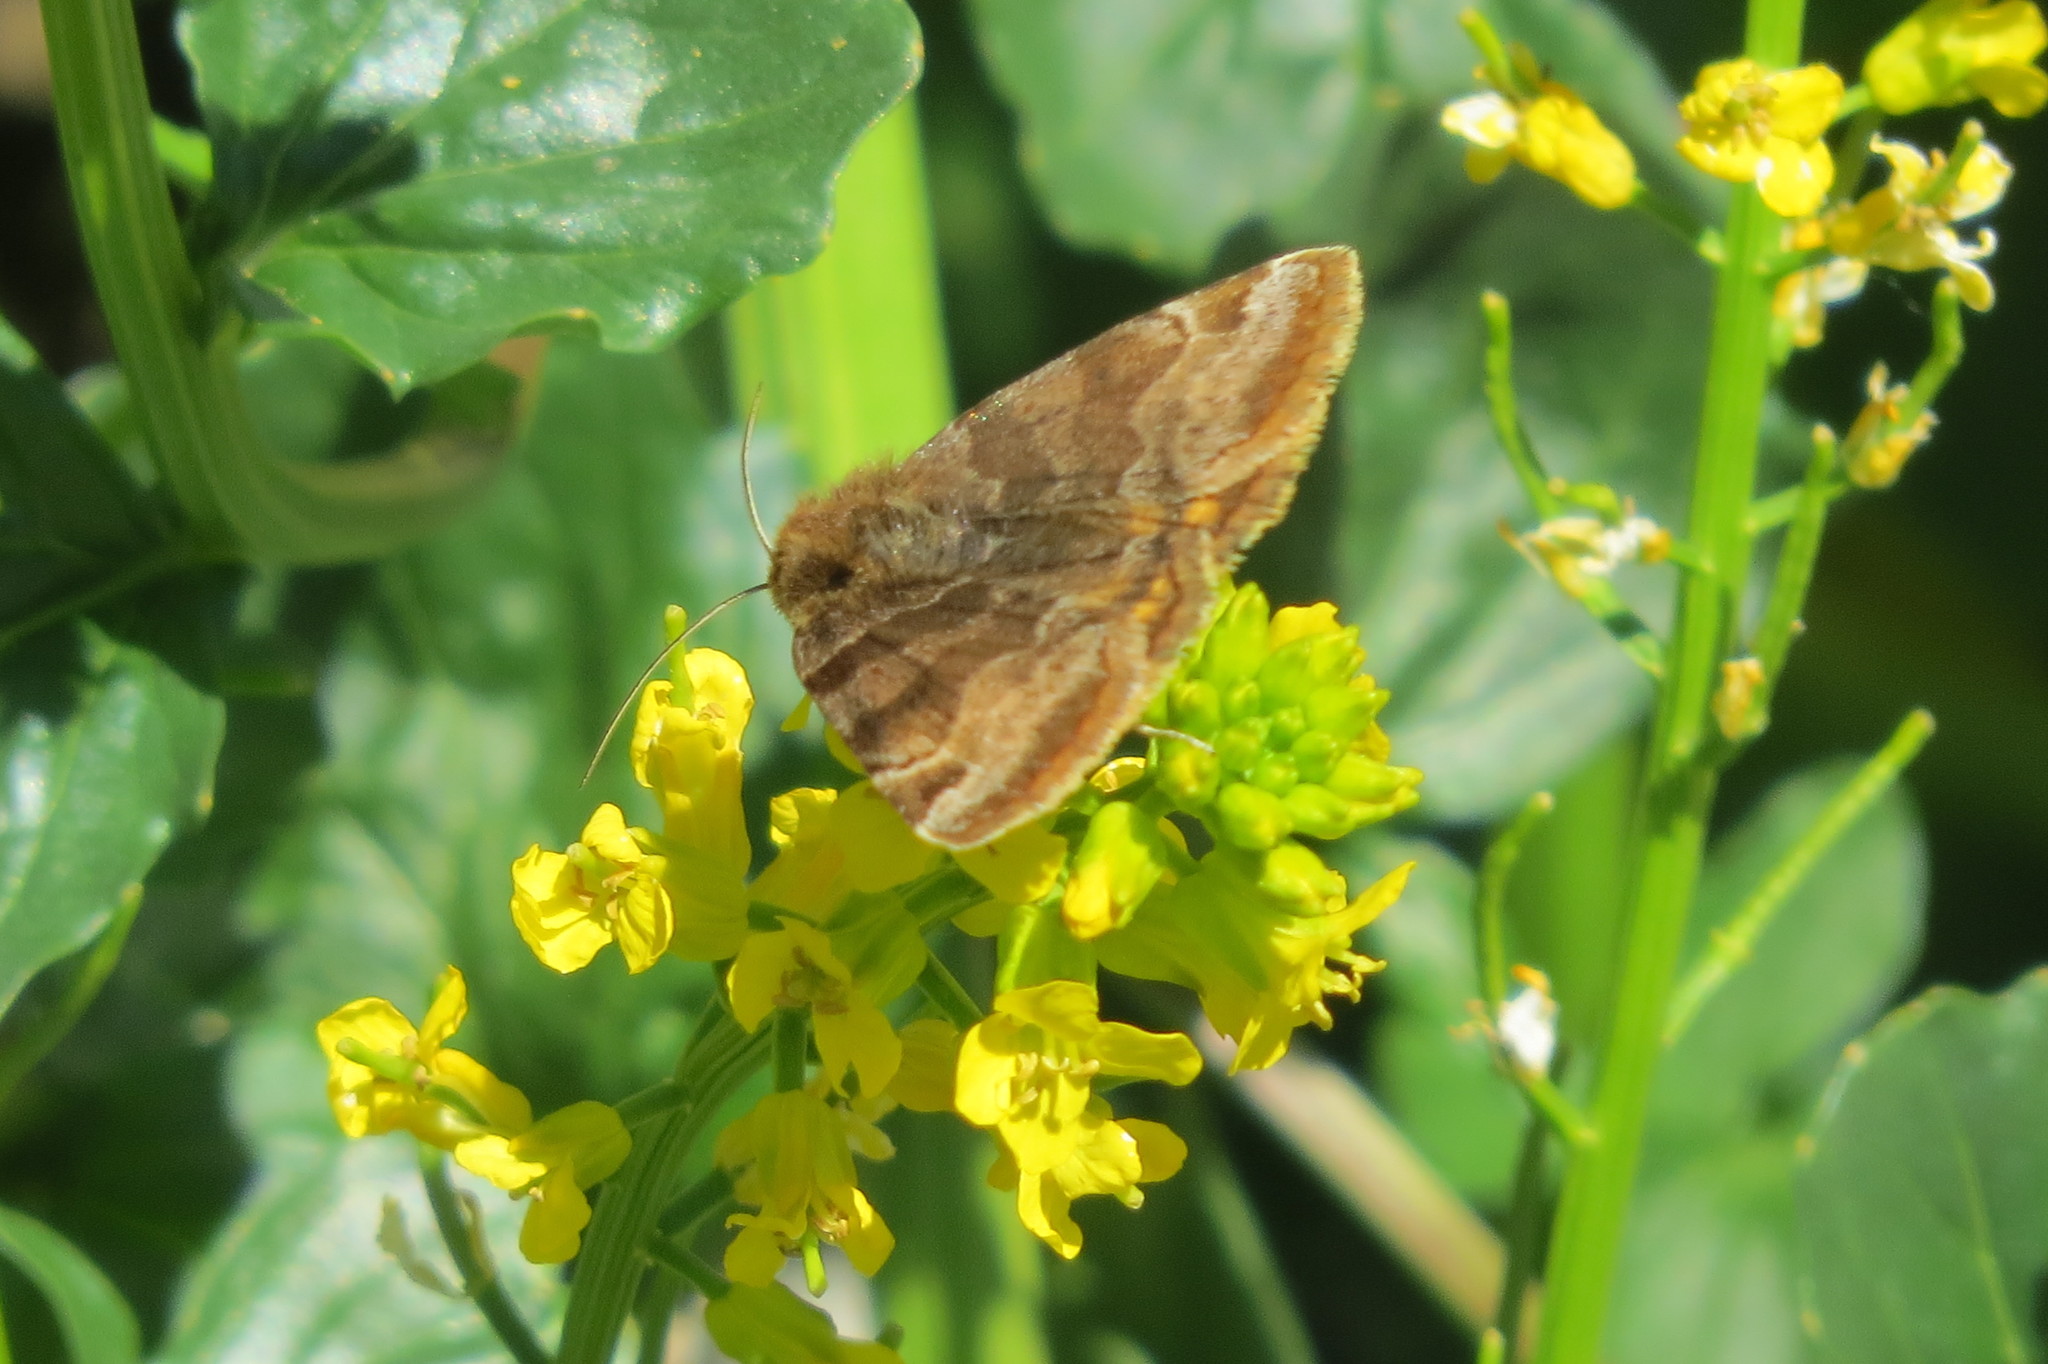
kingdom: Animalia
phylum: Arthropoda
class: Insecta
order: Lepidoptera
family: Erebidae
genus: Euclidia
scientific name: Euclidia glyphica
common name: Burnet companion
